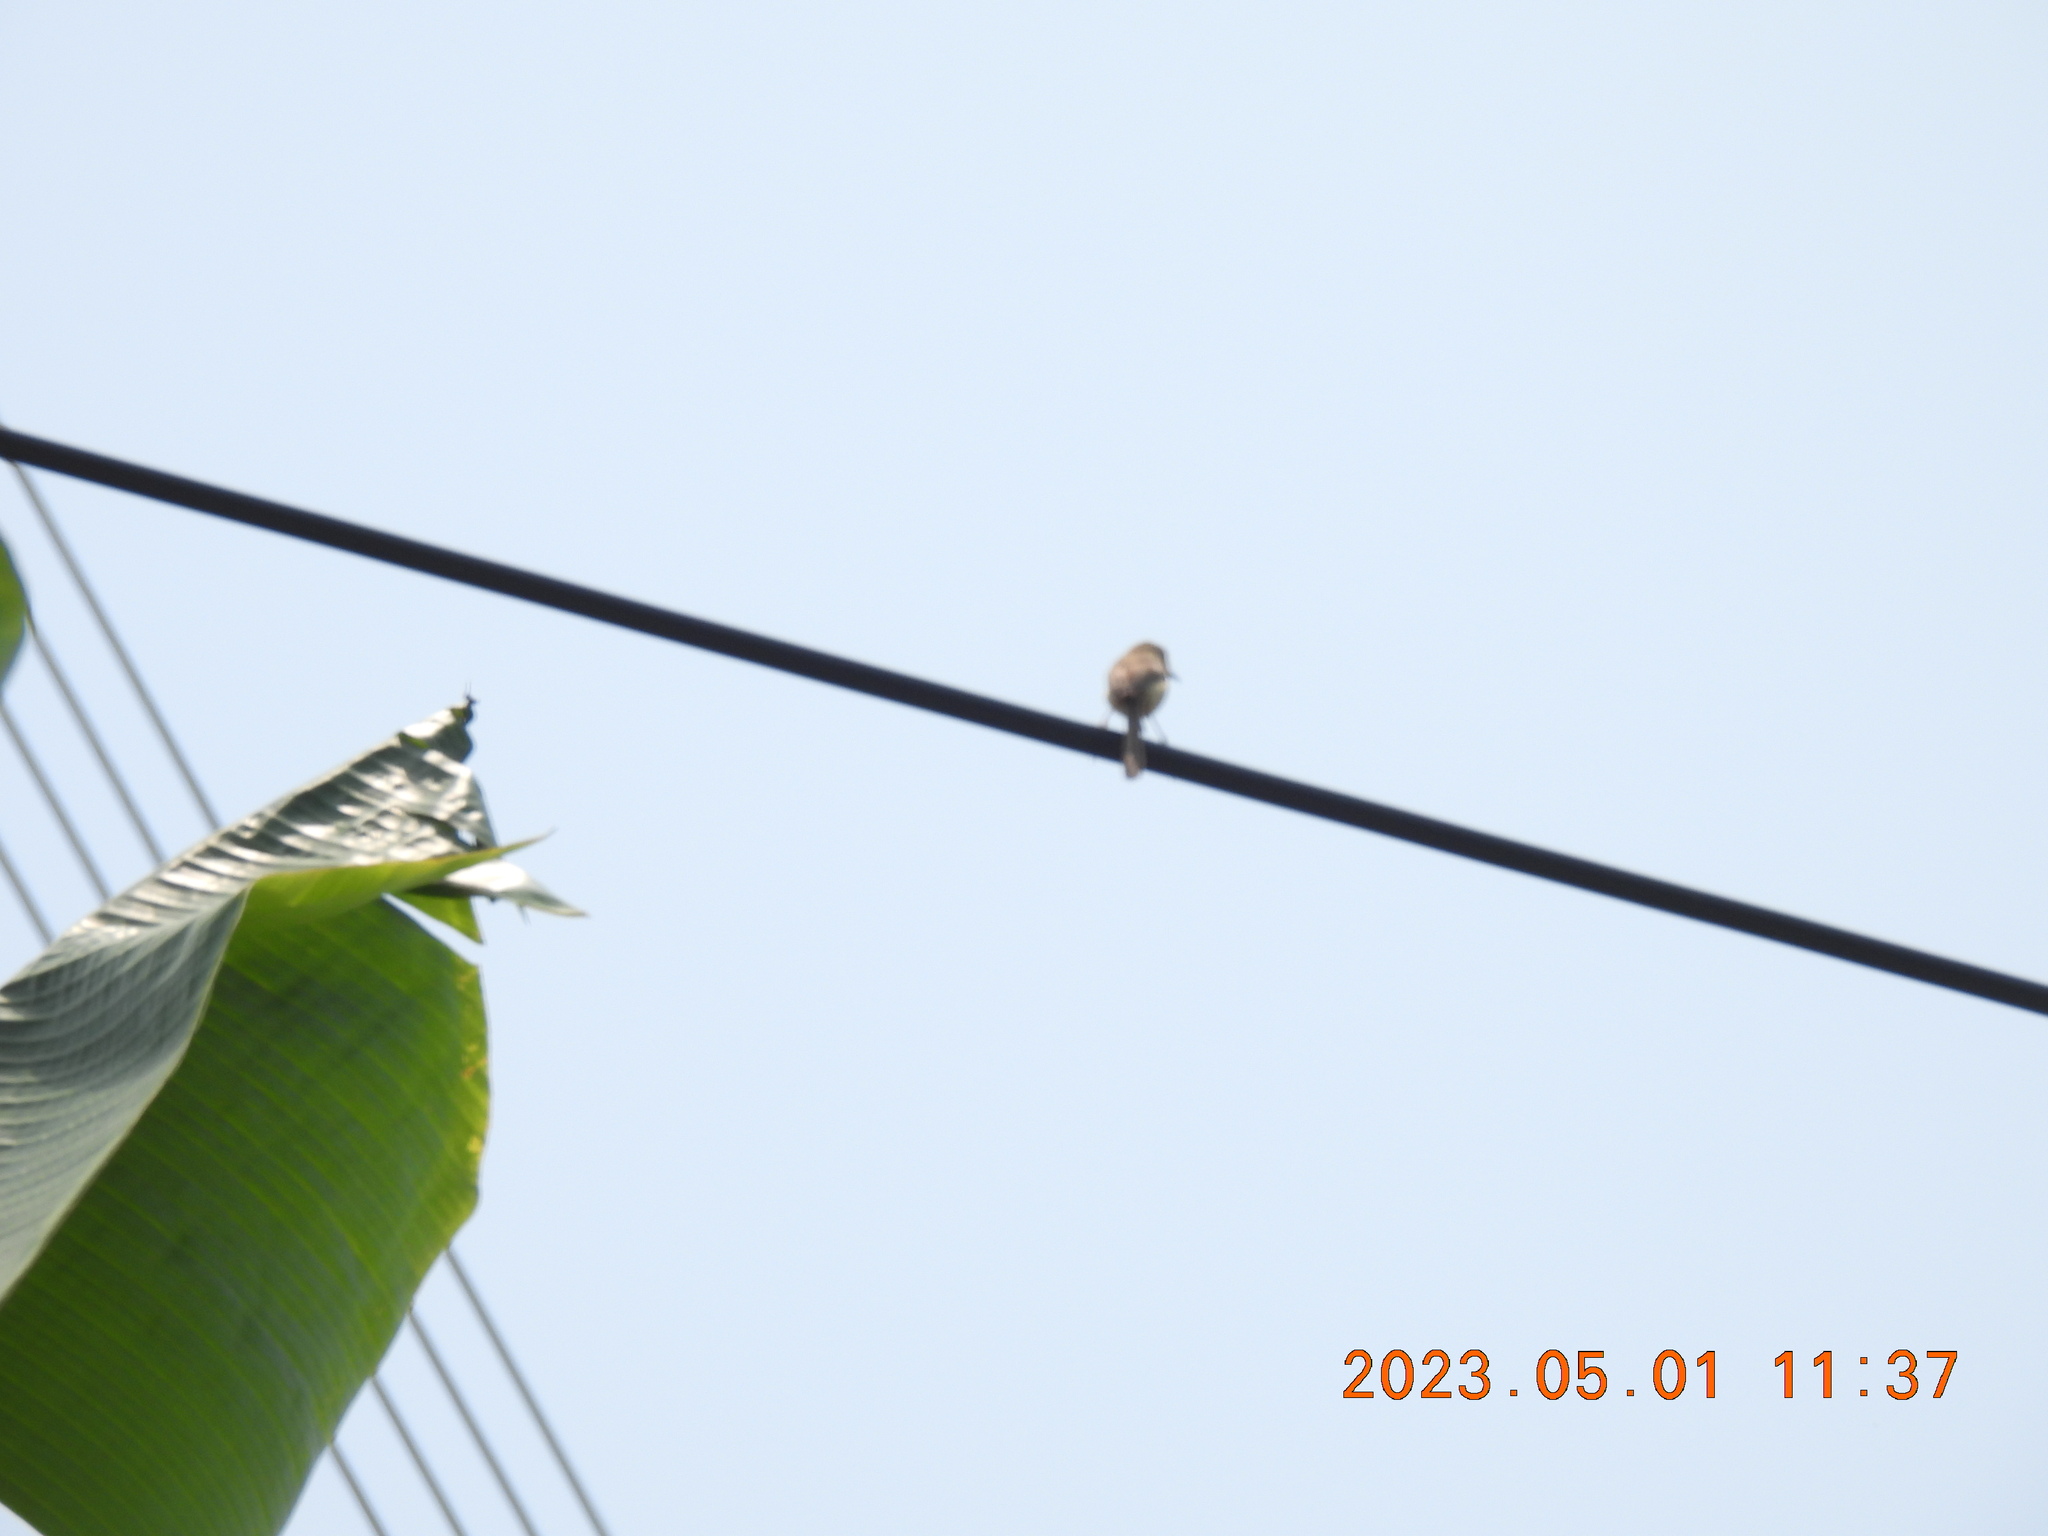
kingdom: Animalia
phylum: Chordata
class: Aves
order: Passeriformes
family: Cisticolidae
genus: Prinia
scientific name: Prinia inornata
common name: Plain prinia
